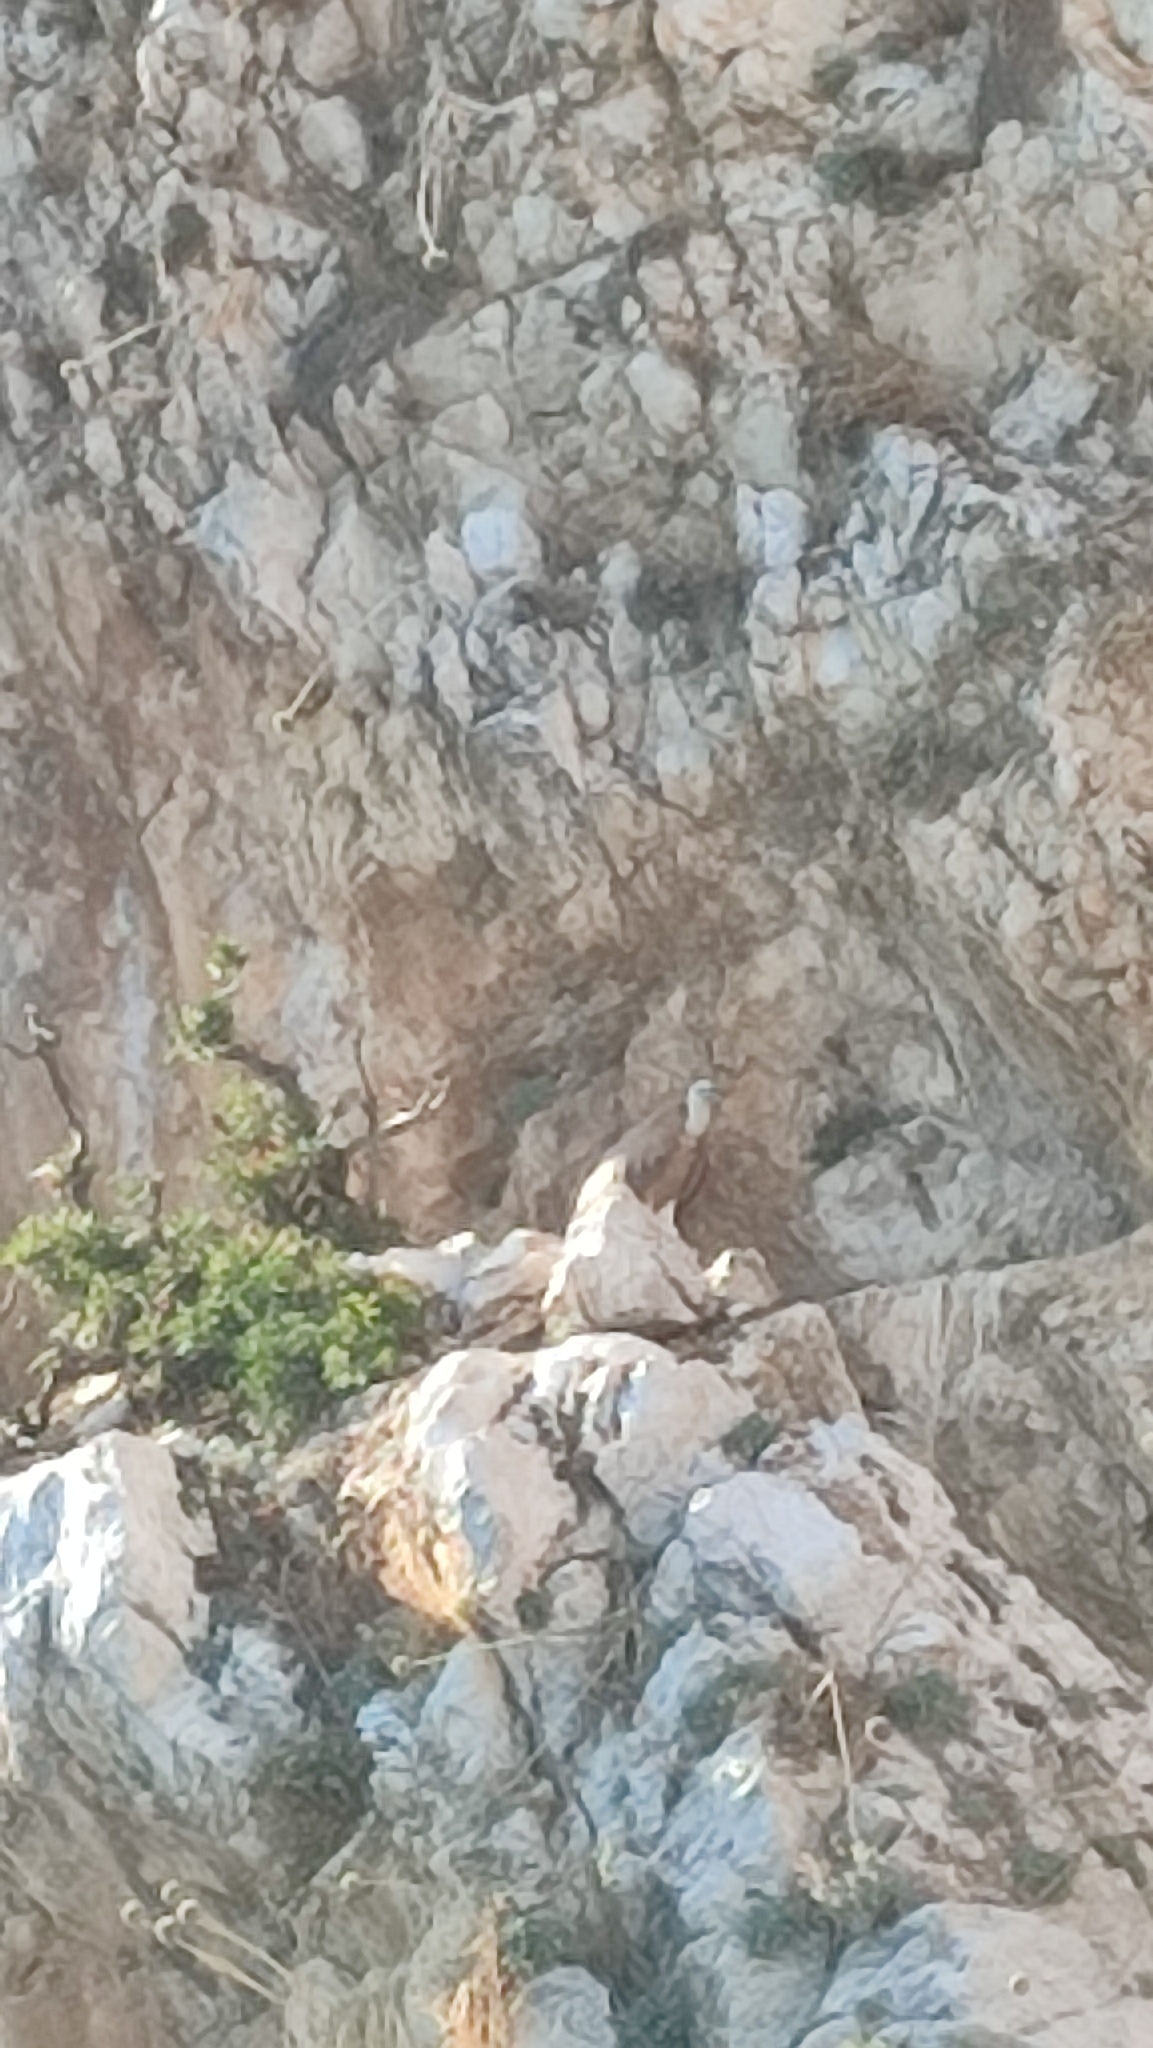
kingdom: Animalia
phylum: Chordata
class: Aves
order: Accipitriformes
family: Accipitridae
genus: Gyps
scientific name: Gyps fulvus
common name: Griffon vulture
